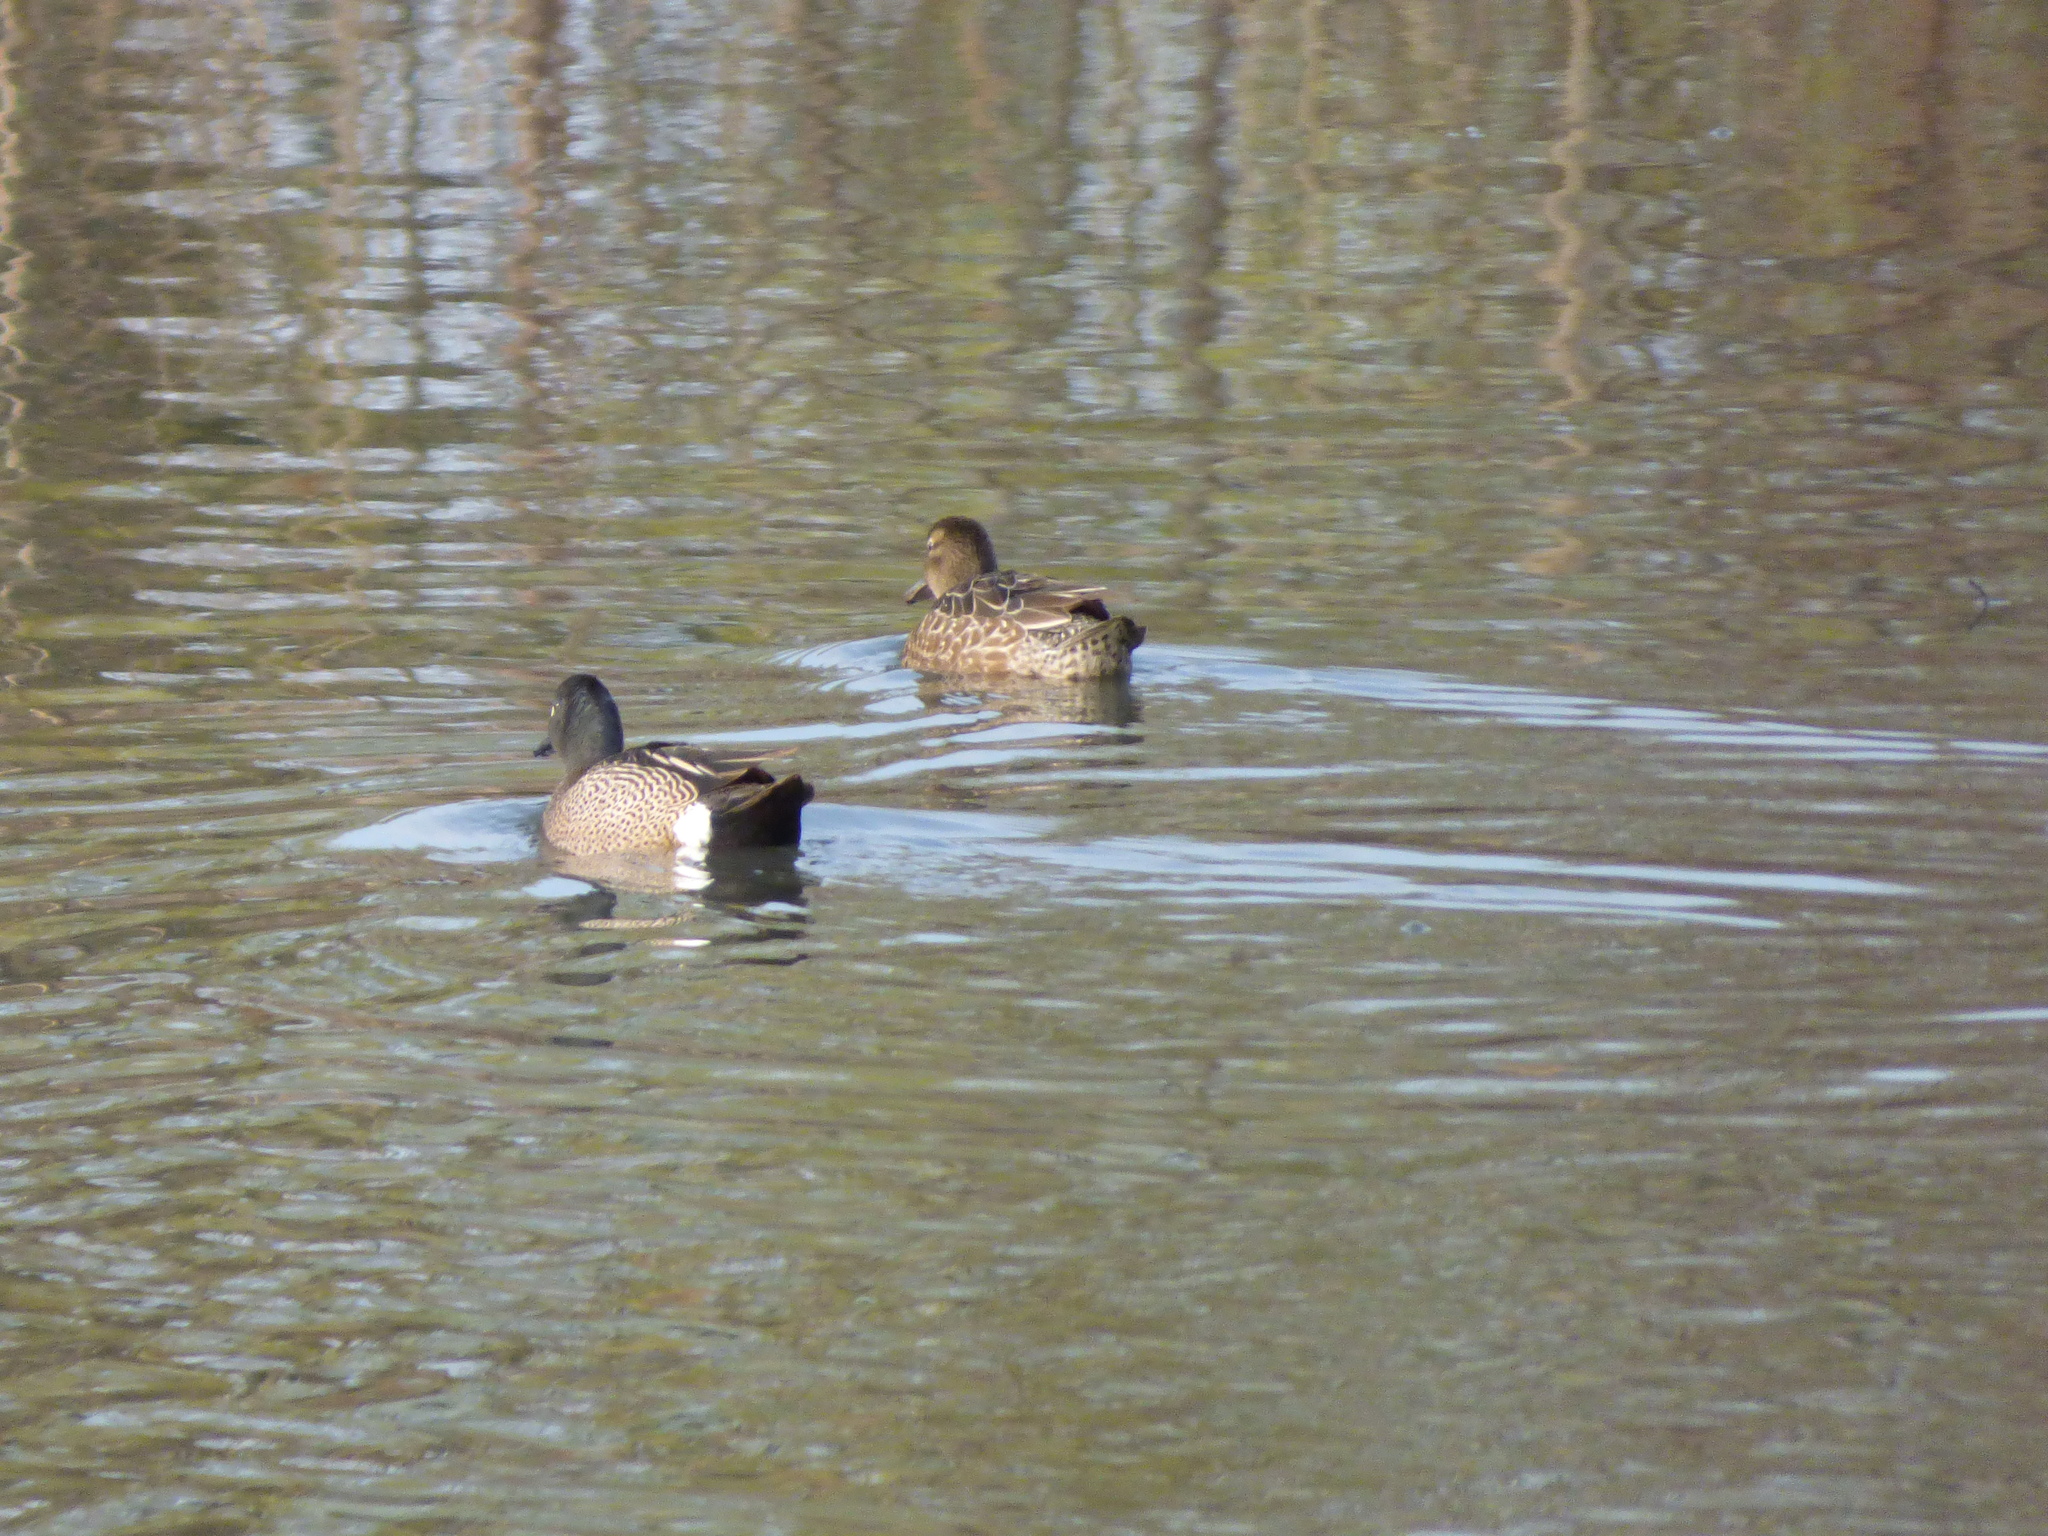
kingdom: Animalia
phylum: Chordata
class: Aves
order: Anseriformes
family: Anatidae
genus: Spatula
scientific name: Spatula discors
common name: Blue-winged teal
